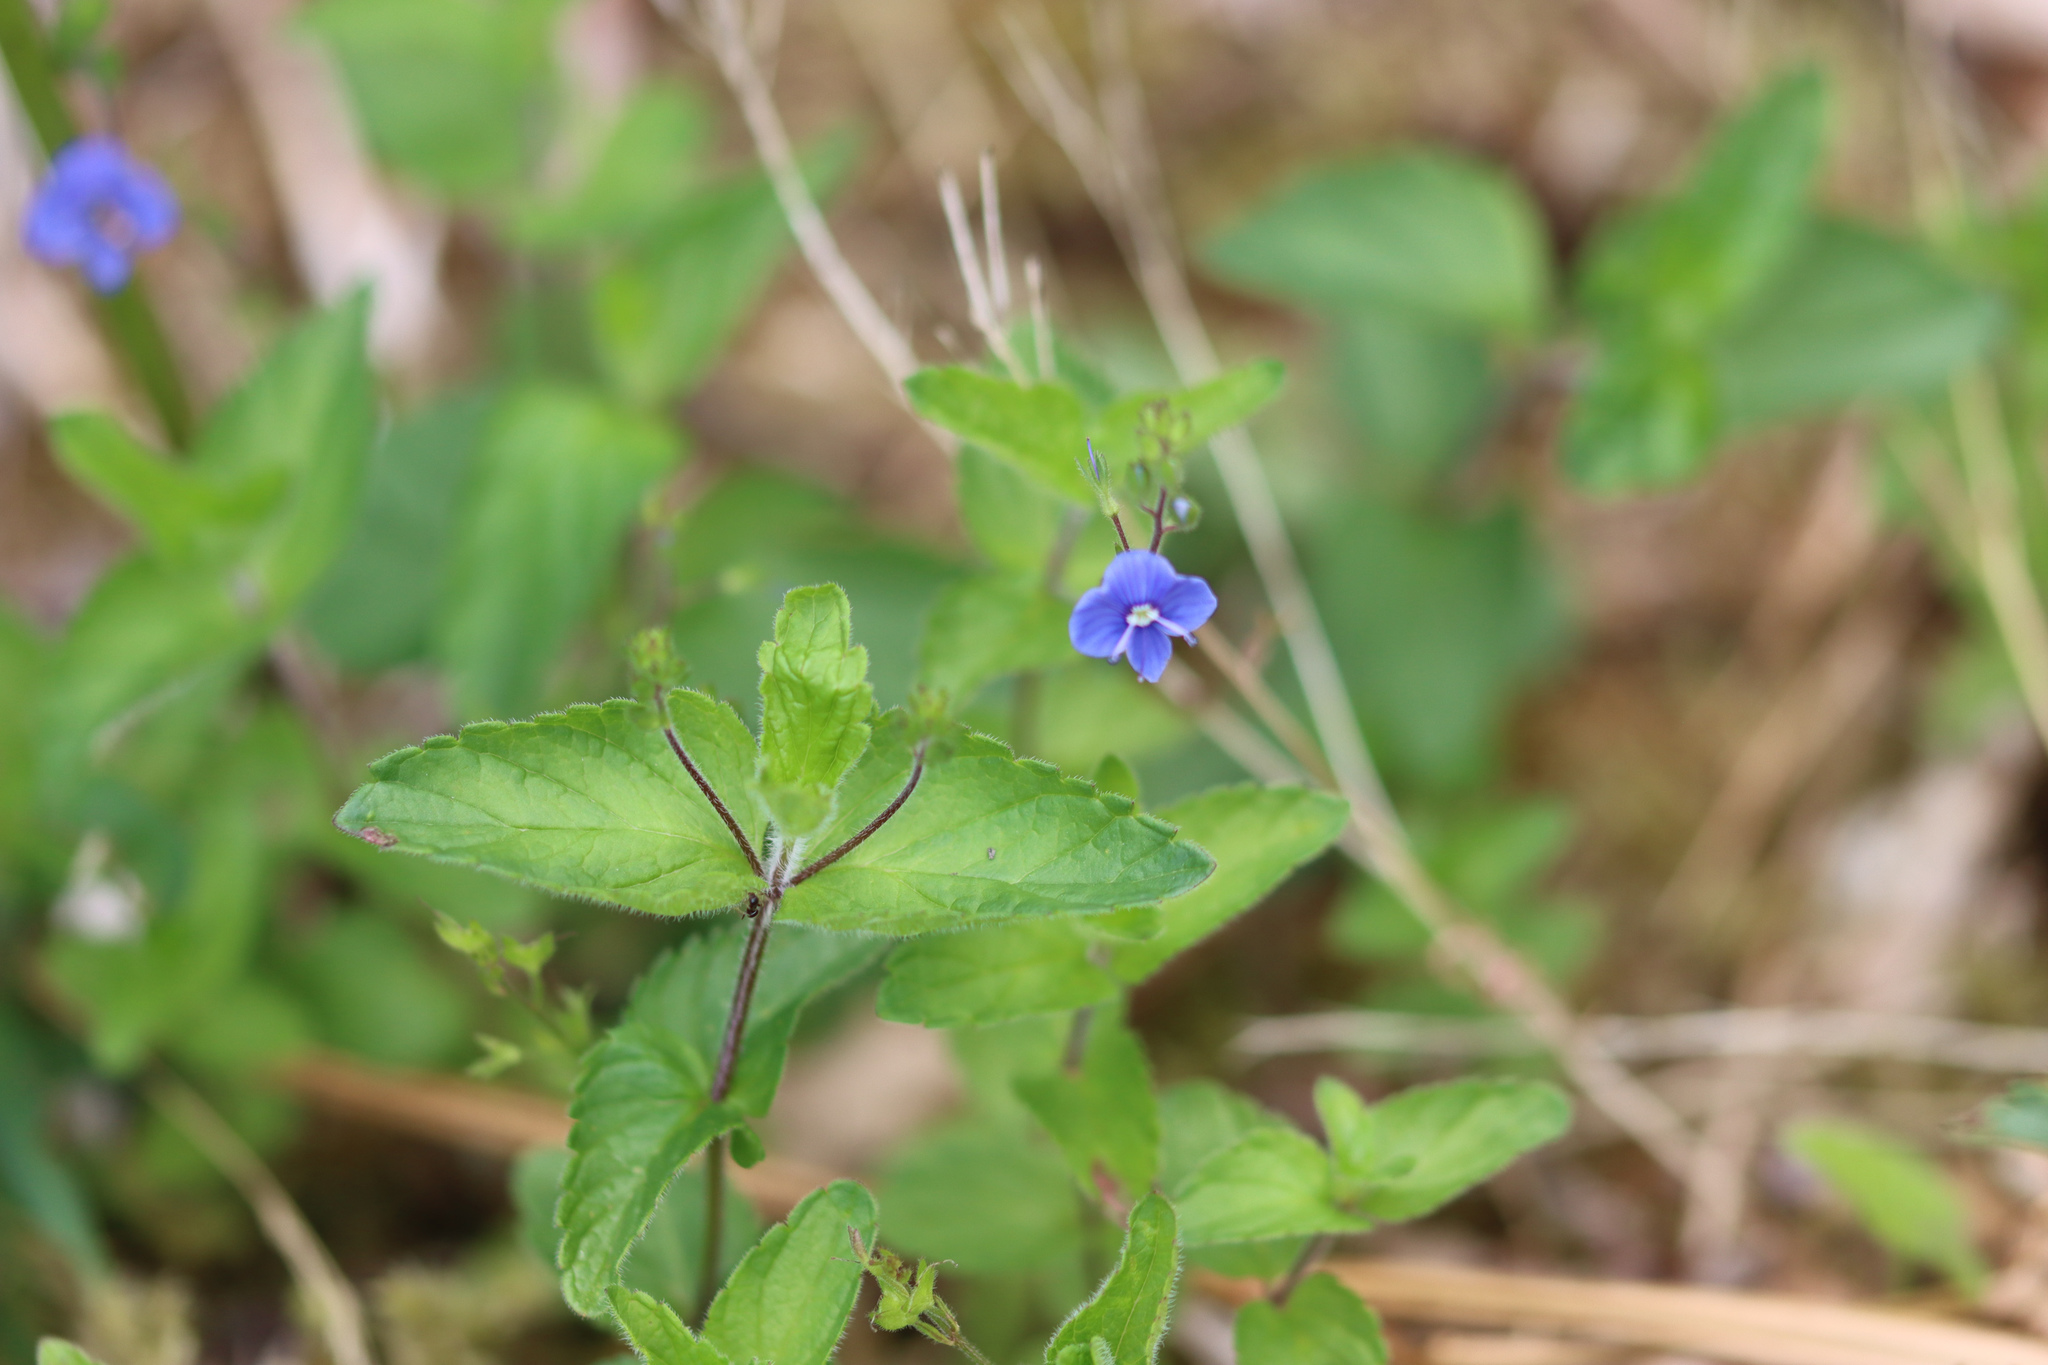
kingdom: Plantae
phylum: Tracheophyta
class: Magnoliopsida
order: Lamiales
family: Plantaginaceae
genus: Veronica
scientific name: Veronica chamaedrys
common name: Germander speedwell
